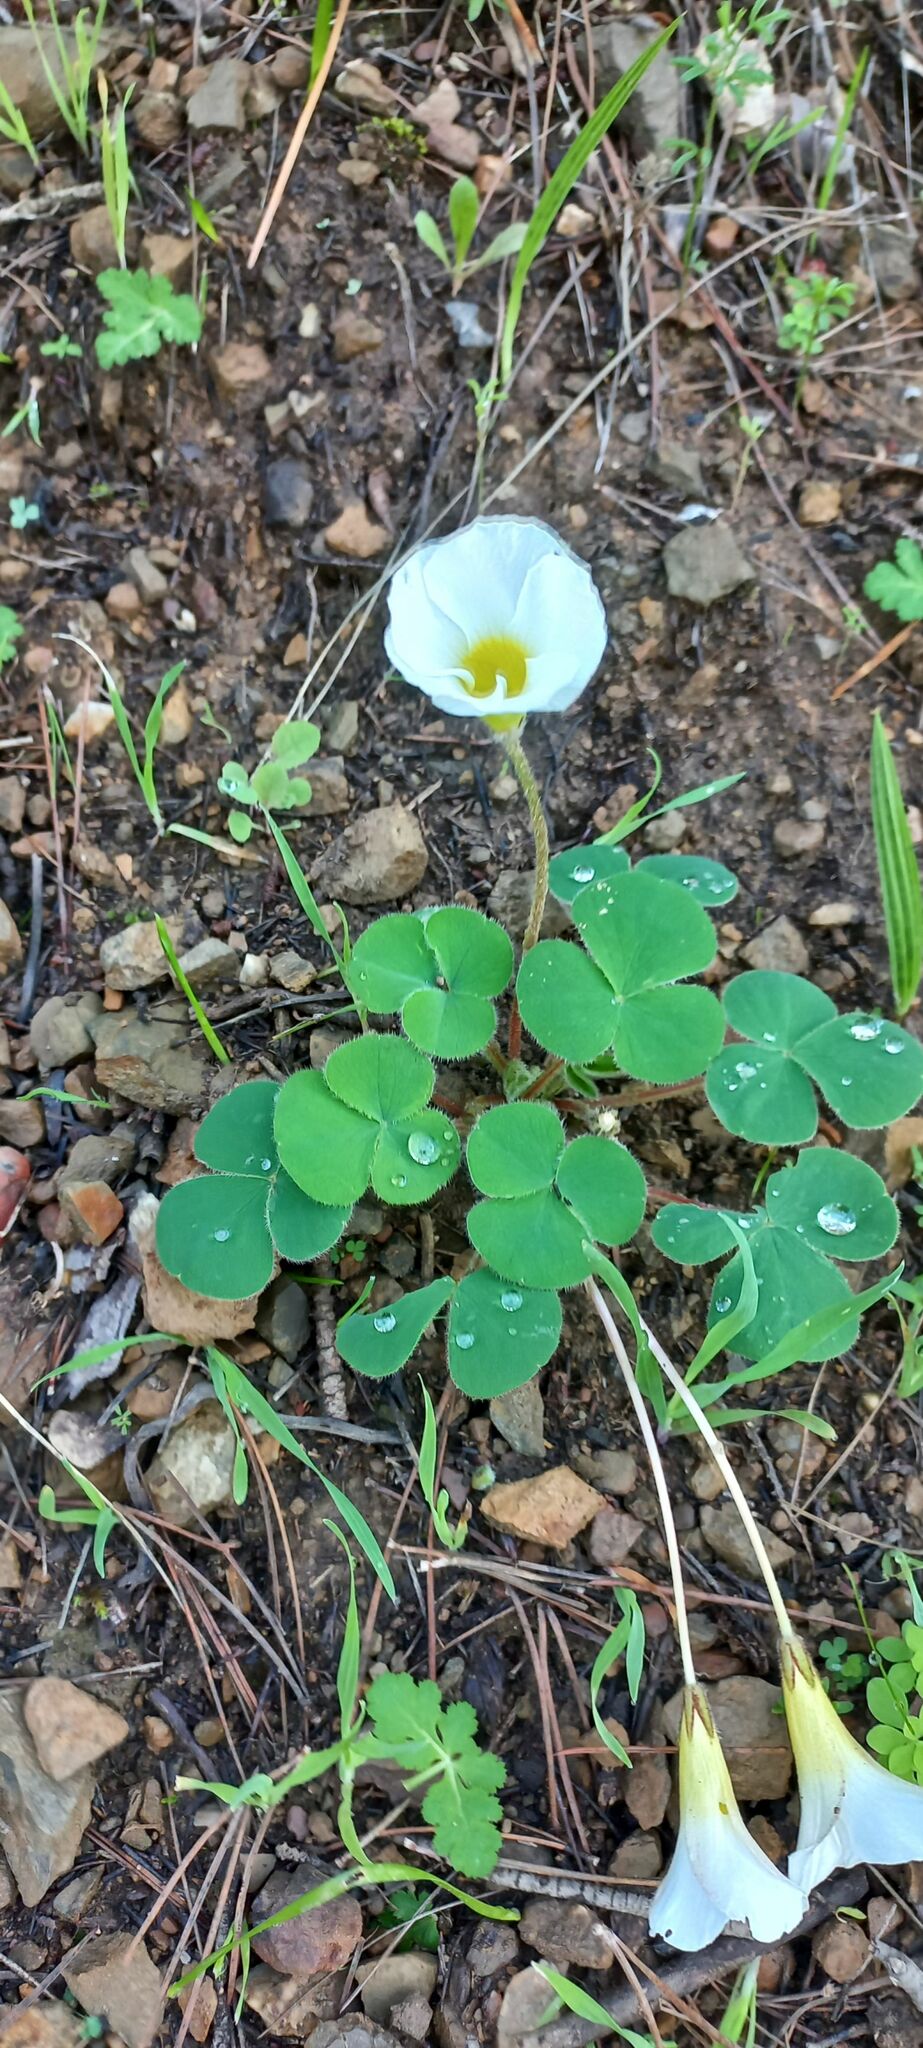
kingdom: Plantae
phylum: Tracheophyta
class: Magnoliopsida
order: Oxalidales
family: Oxalidaceae
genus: Oxalis
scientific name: Oxalis purpurea
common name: Purple woodsorrel
